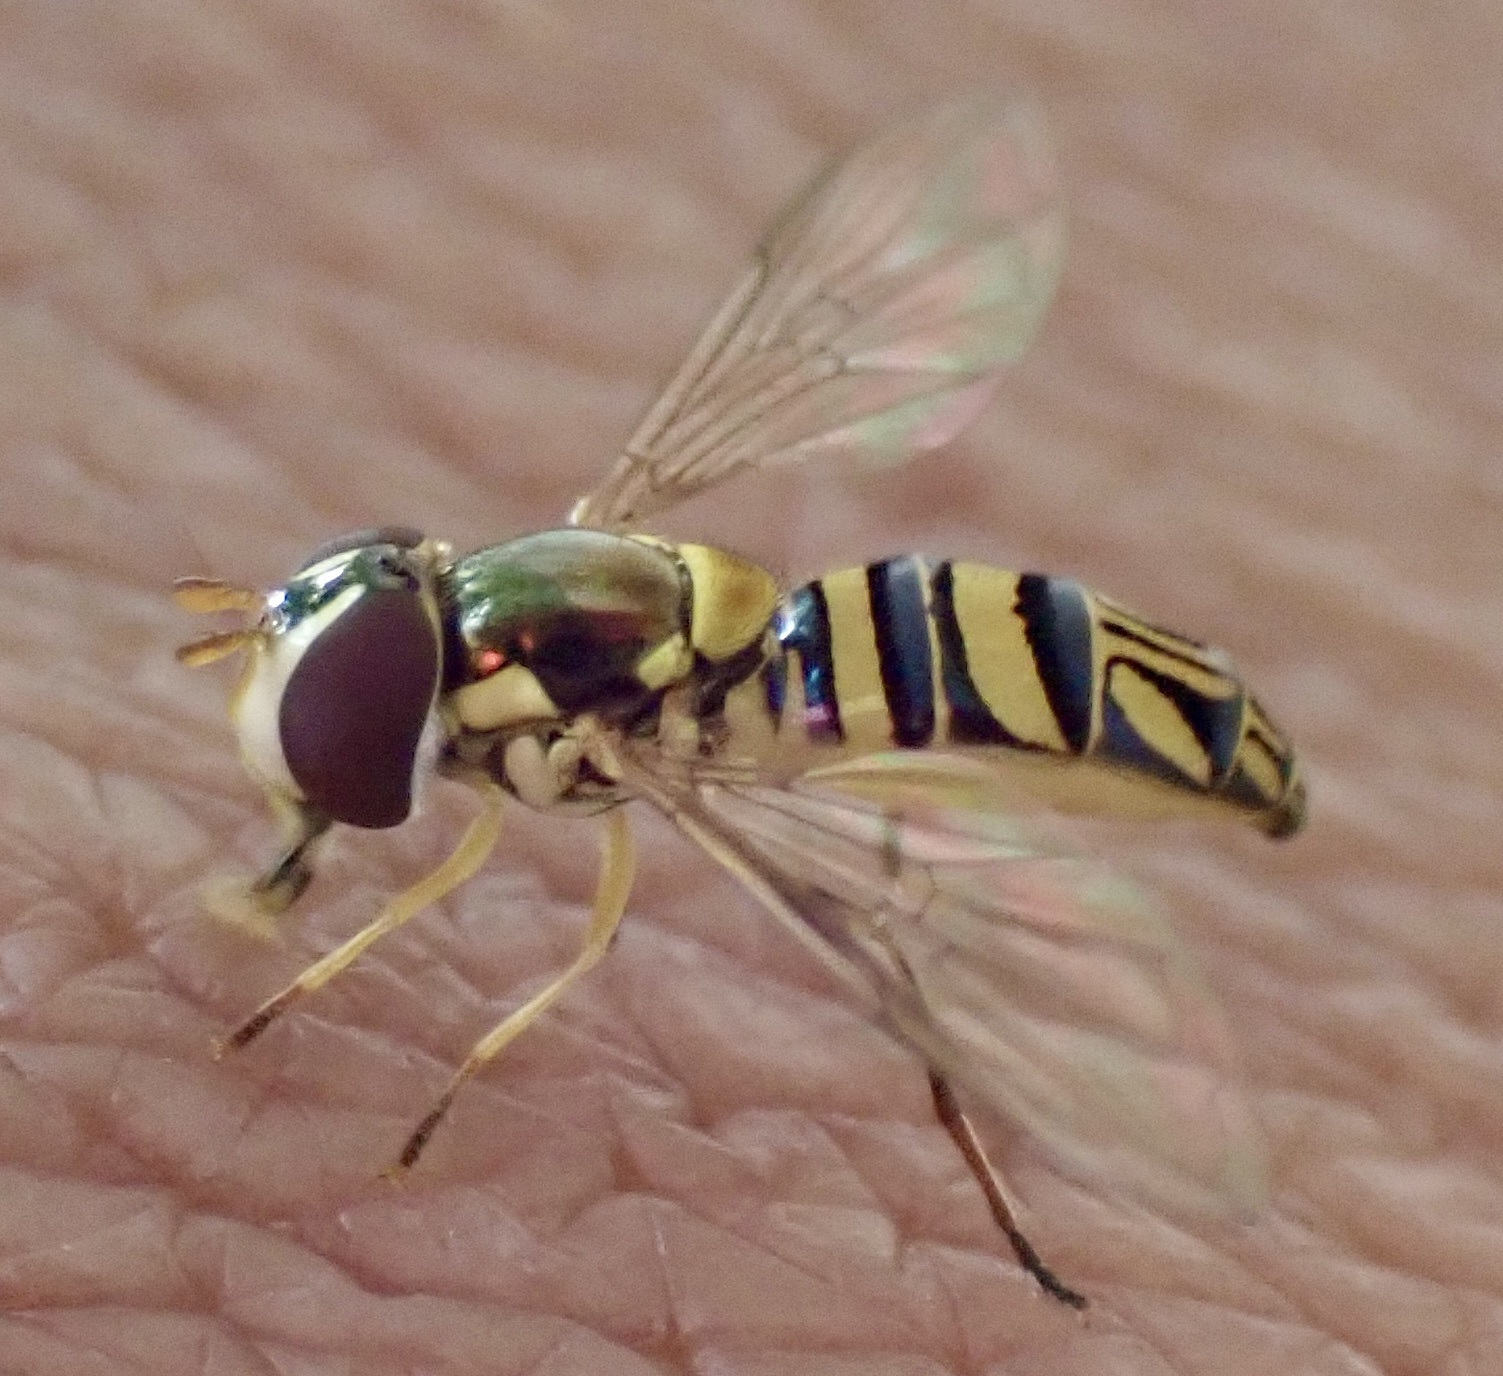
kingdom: Animalia
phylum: Arthropoda
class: Insecta
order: Diptera
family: Syrphidae
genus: Allograpta
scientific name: Allograpta obliqua
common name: Common oblique syrphid
